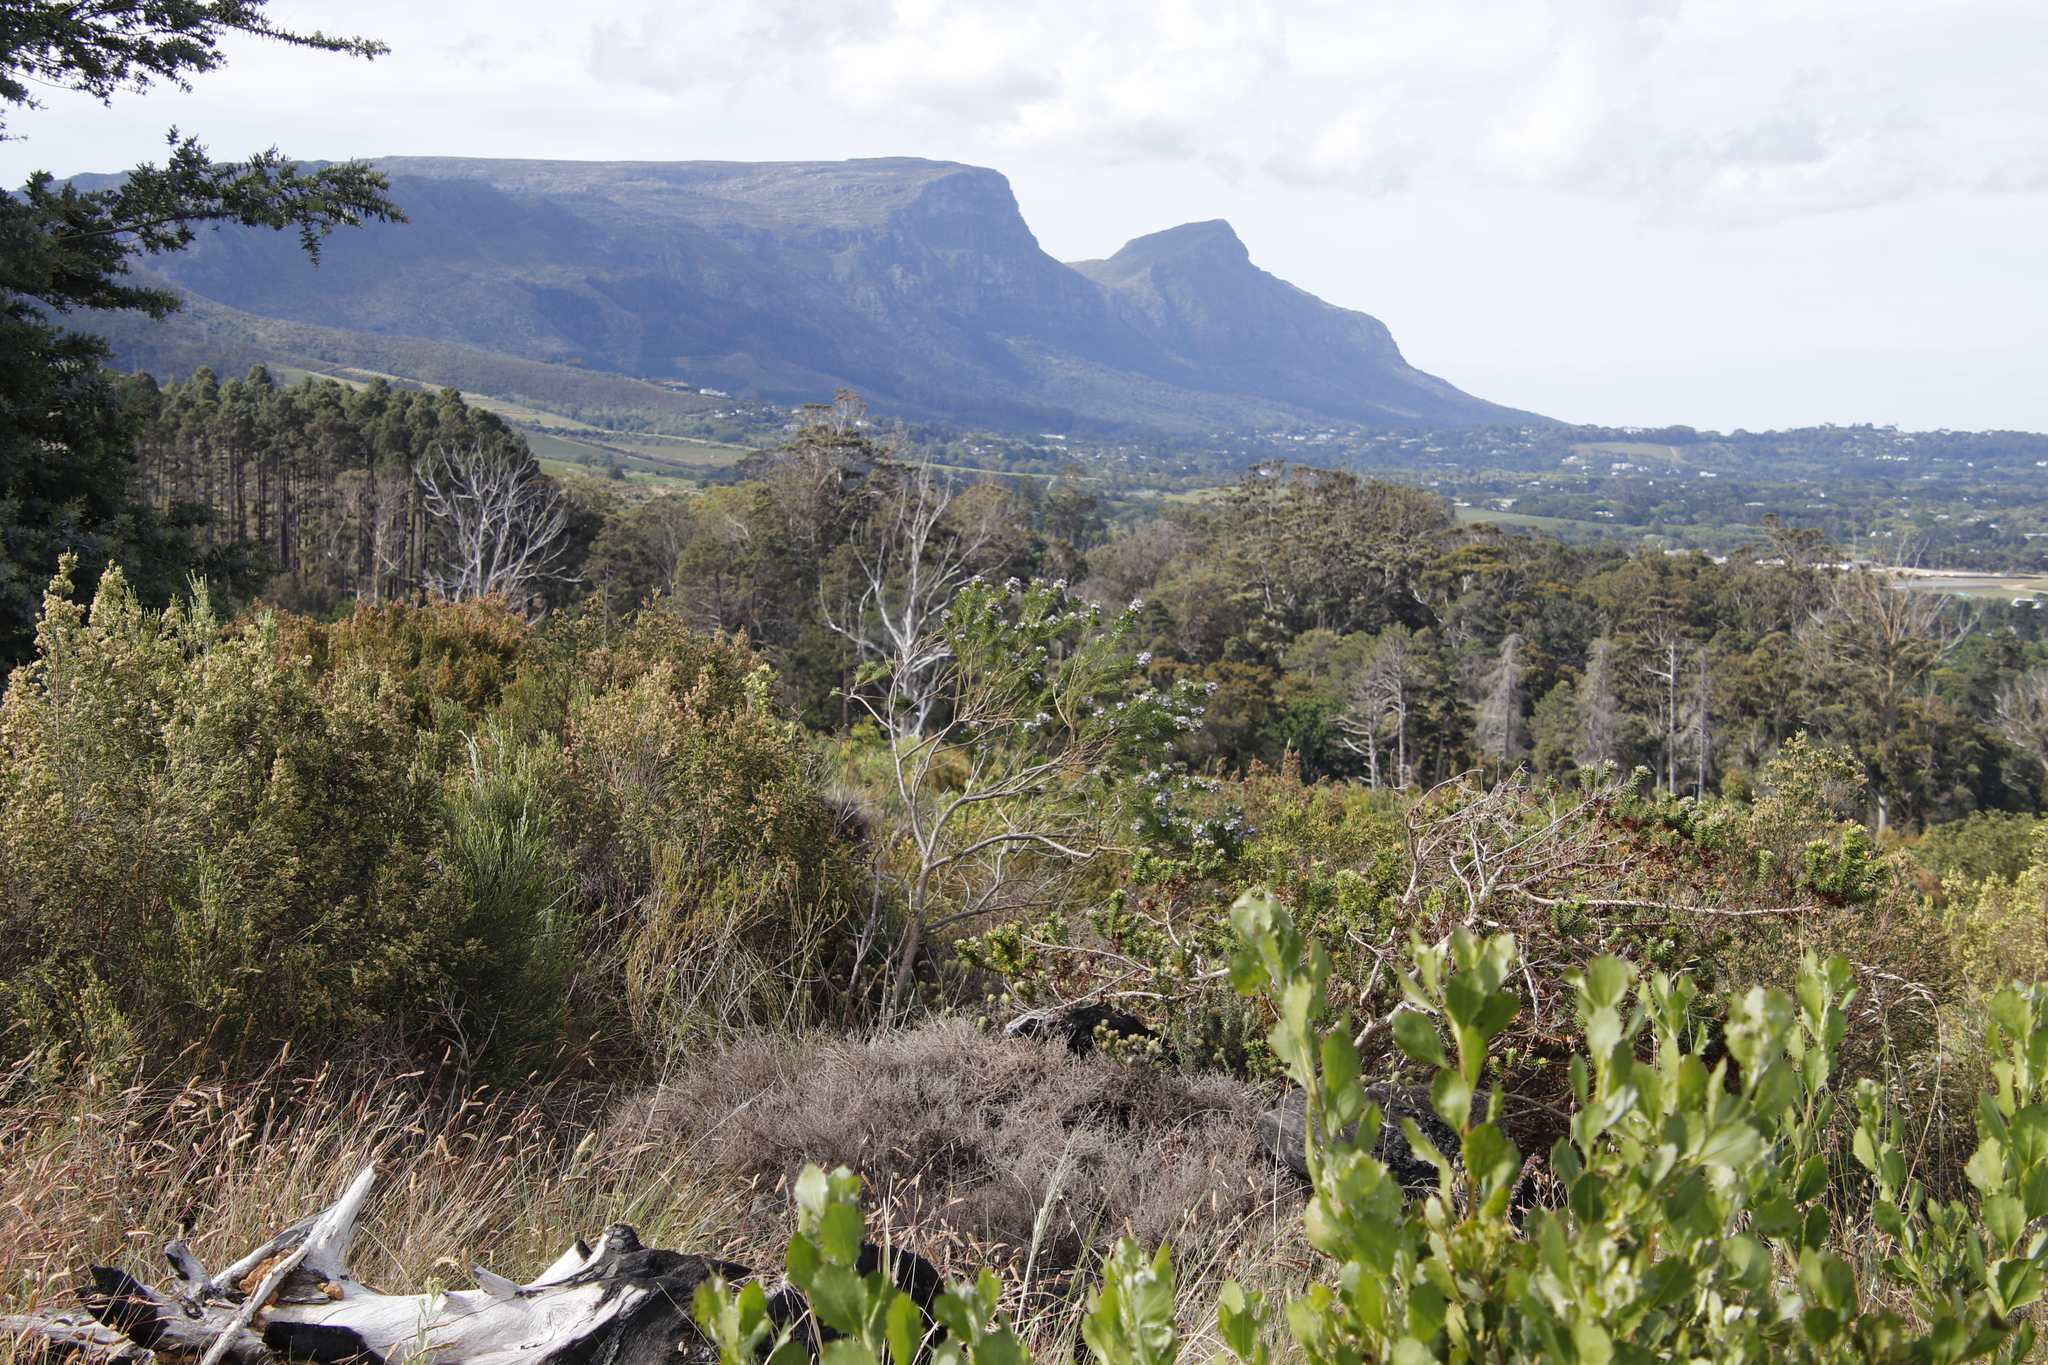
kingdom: Plantae
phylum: Tracheophyta
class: Magnoliopsida
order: Fabales
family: Fabaceae
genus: Psoralea
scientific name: Psoralea pinnata
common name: African scurfpea
